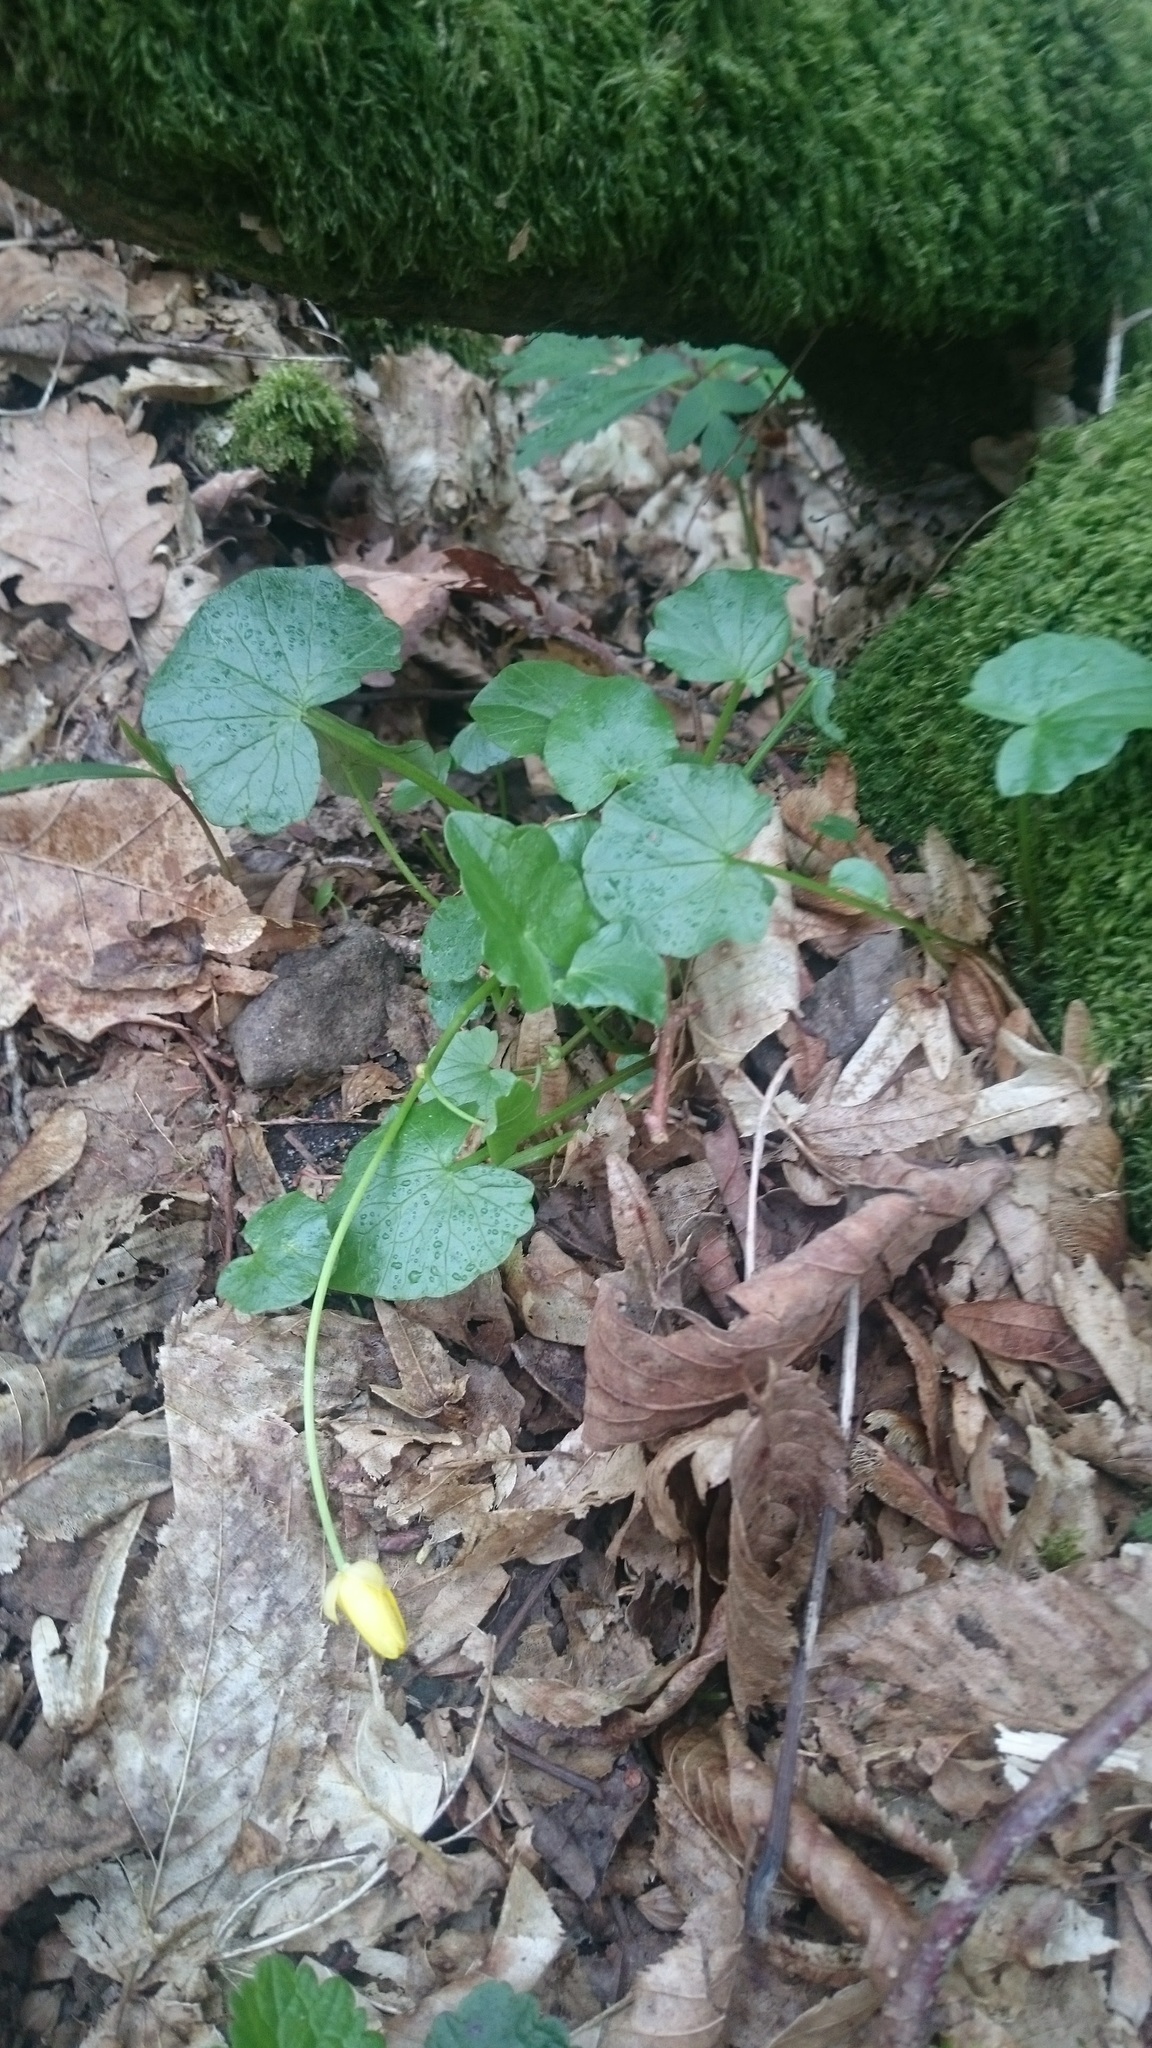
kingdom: Plantae
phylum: Tracheophyta
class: Magnoliopsida
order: Ranunculales
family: Ranunculaceae
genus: Ficaria
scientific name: Ficaria verna
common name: Lesser celandine
